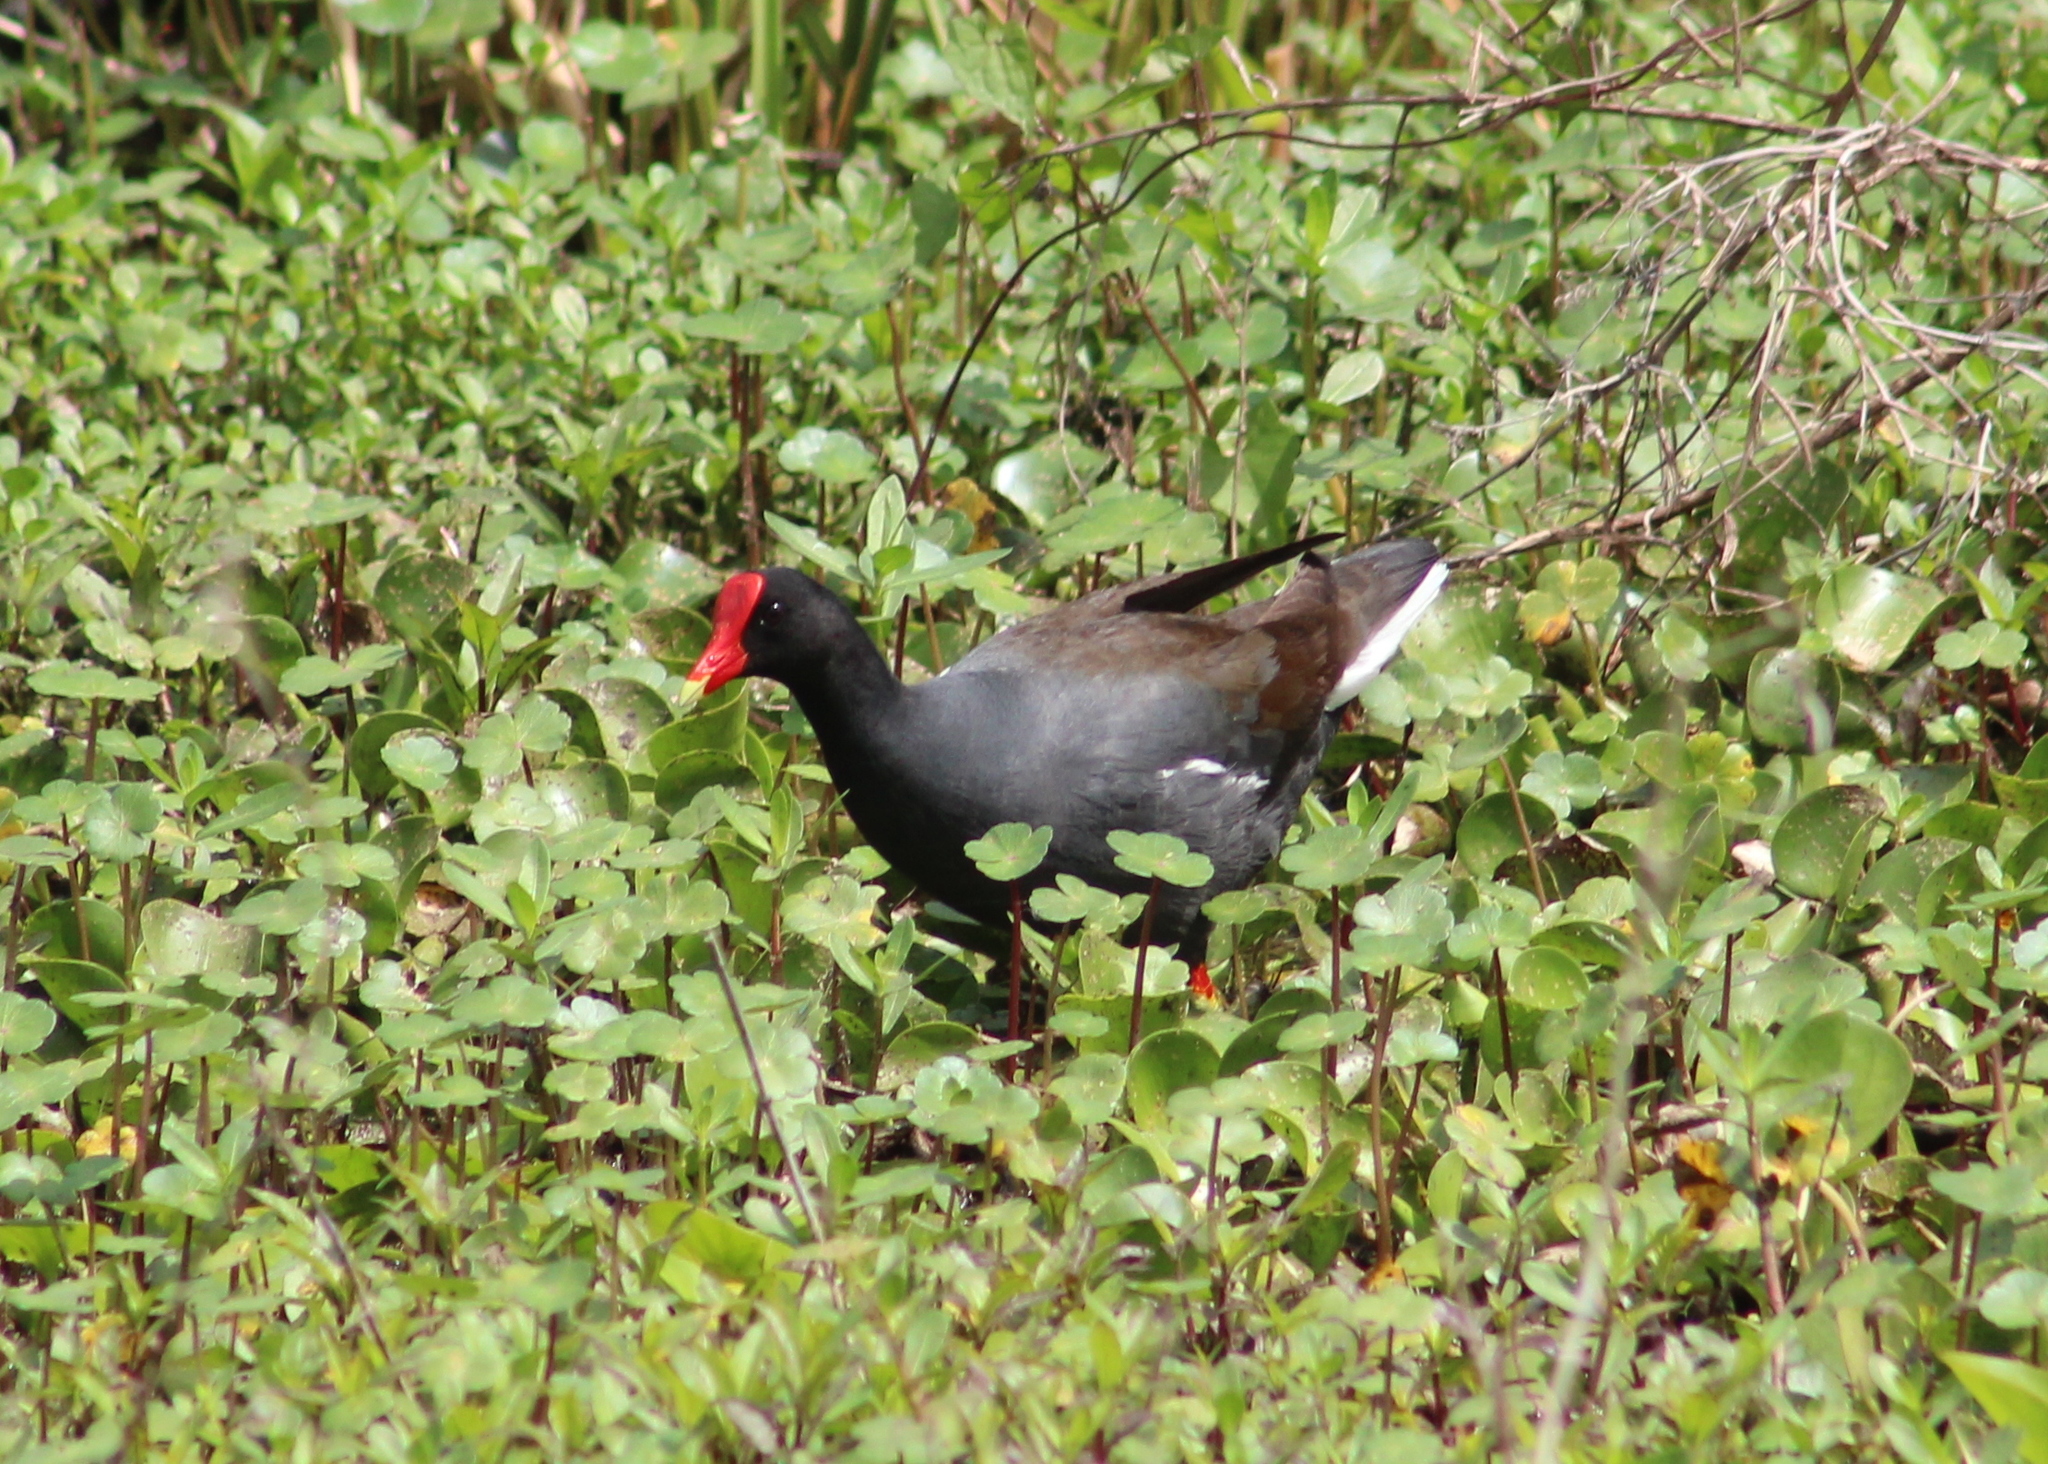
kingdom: Animalia
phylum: Chordata
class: Aves
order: Gruiformes
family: Rallidae
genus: Gallinula
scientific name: Gallinula chloropus
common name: Common moorhen
